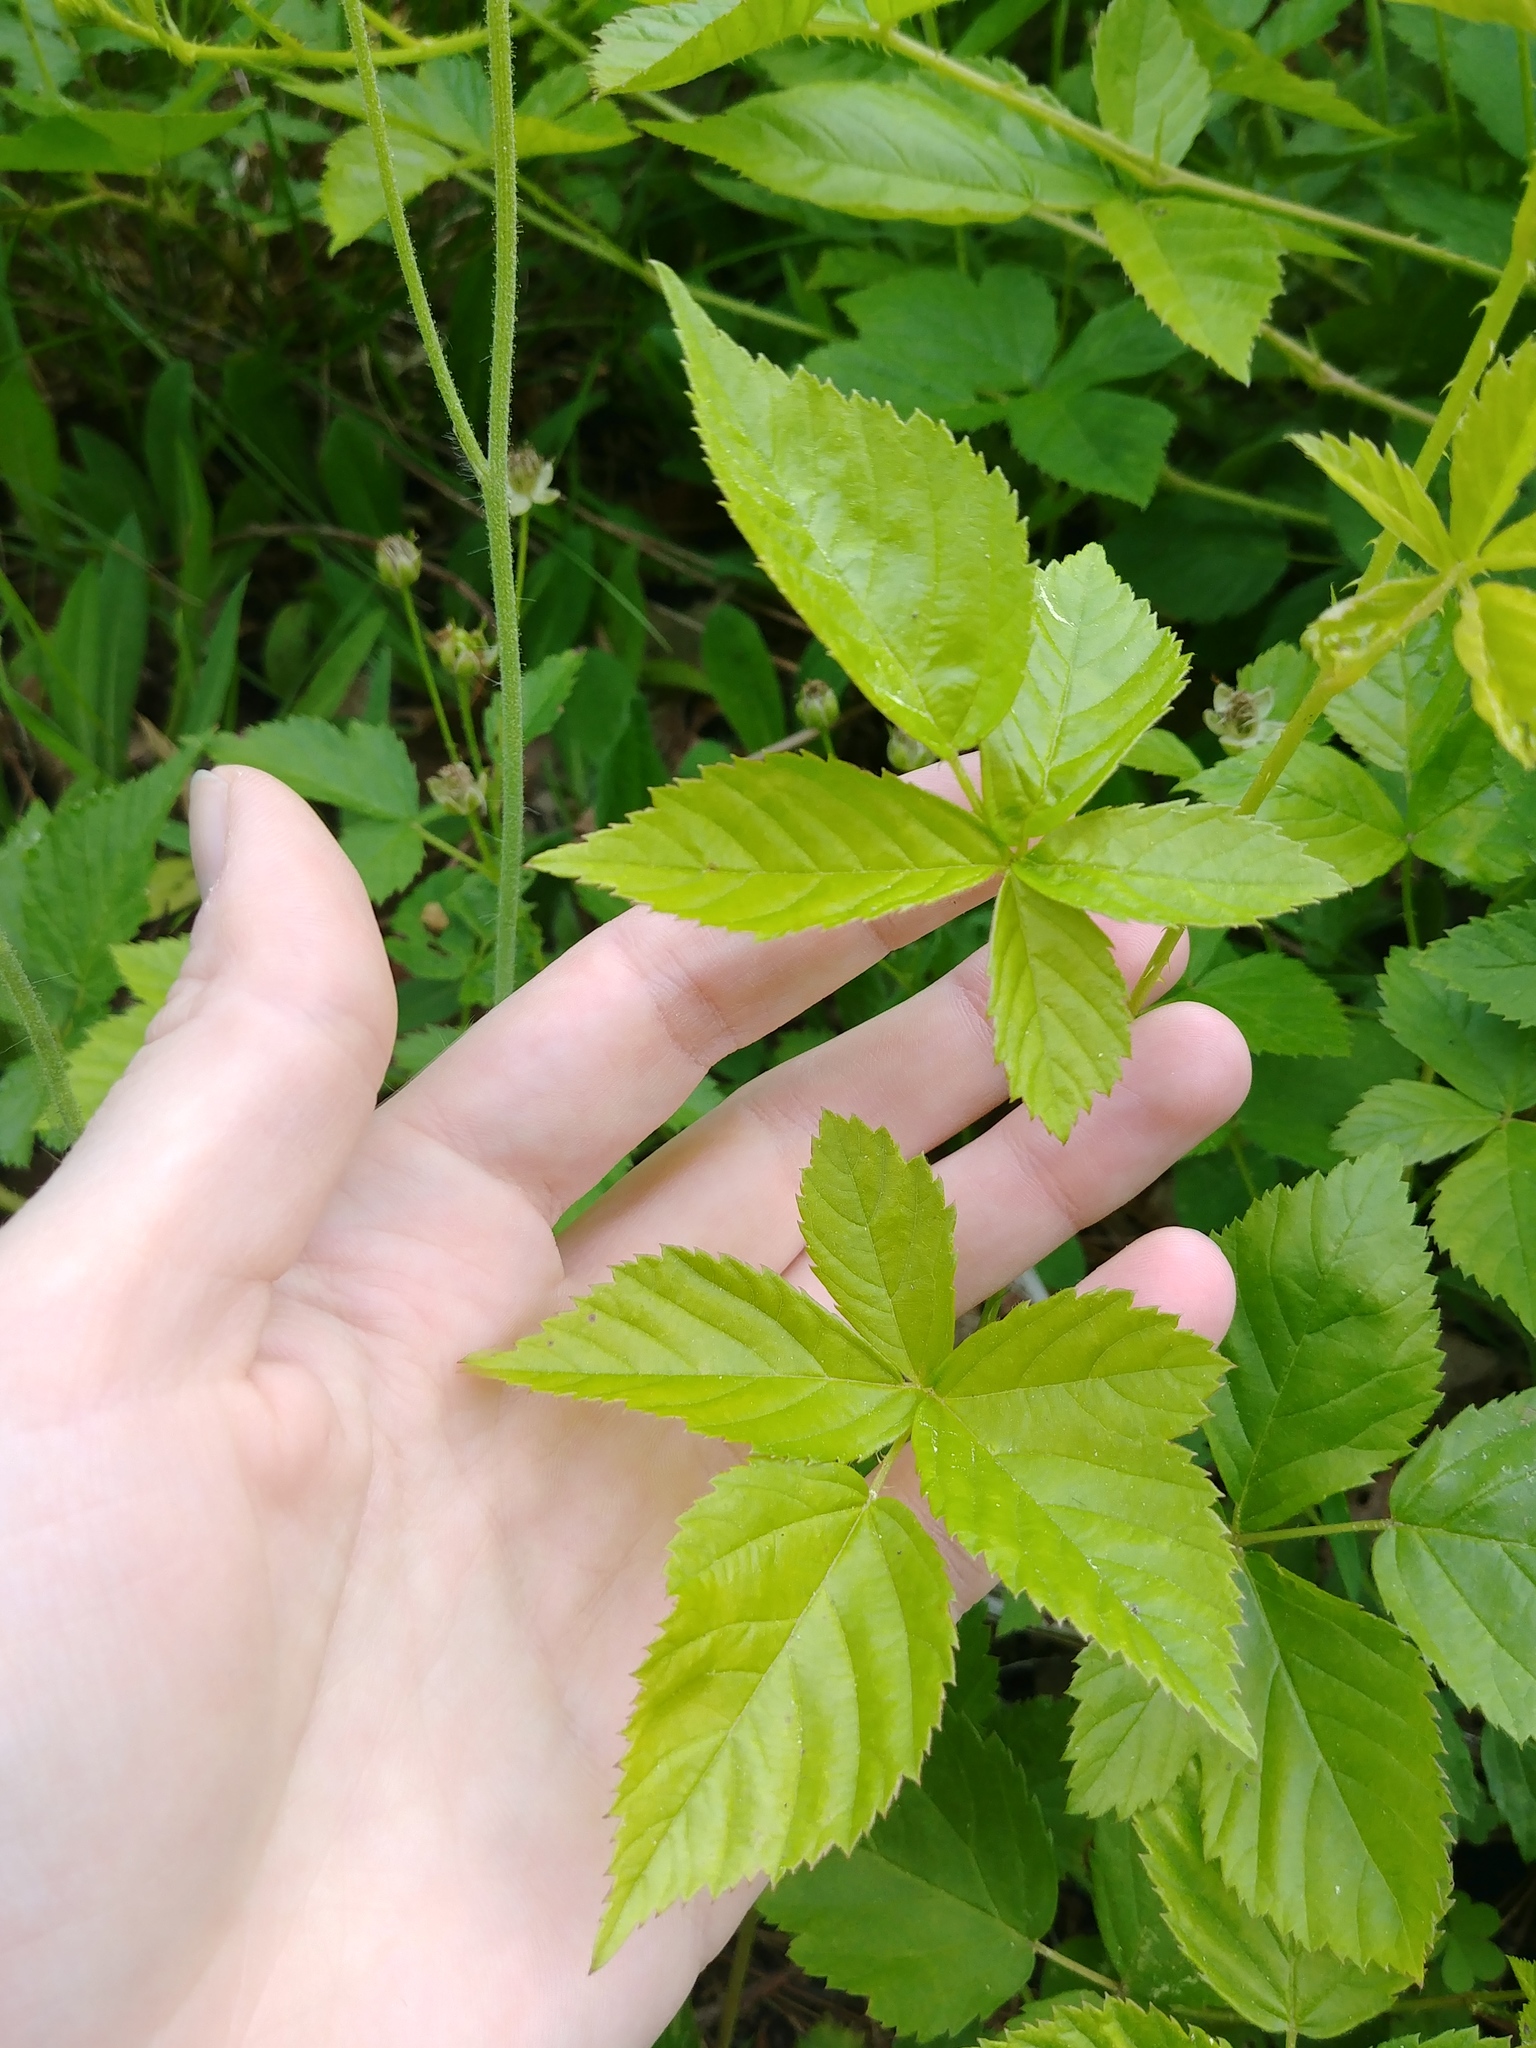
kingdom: Plantae
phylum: Tracheophyta
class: Magnoliopsida
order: Rosales
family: Rosaceae
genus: Rubus
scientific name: Rubus flagellaris
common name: American dewberry
